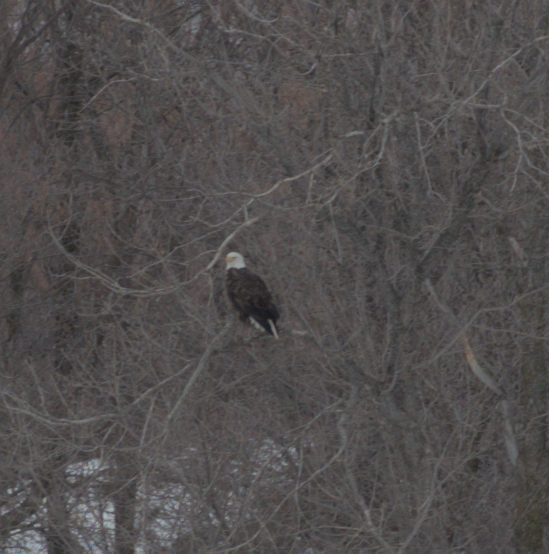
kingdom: Animalia
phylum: Chordata
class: Aves
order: Accipitriformes
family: Accipitridae
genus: Haliaeetus
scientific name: Haliaeetus leucocephalus
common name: Bald eagle
